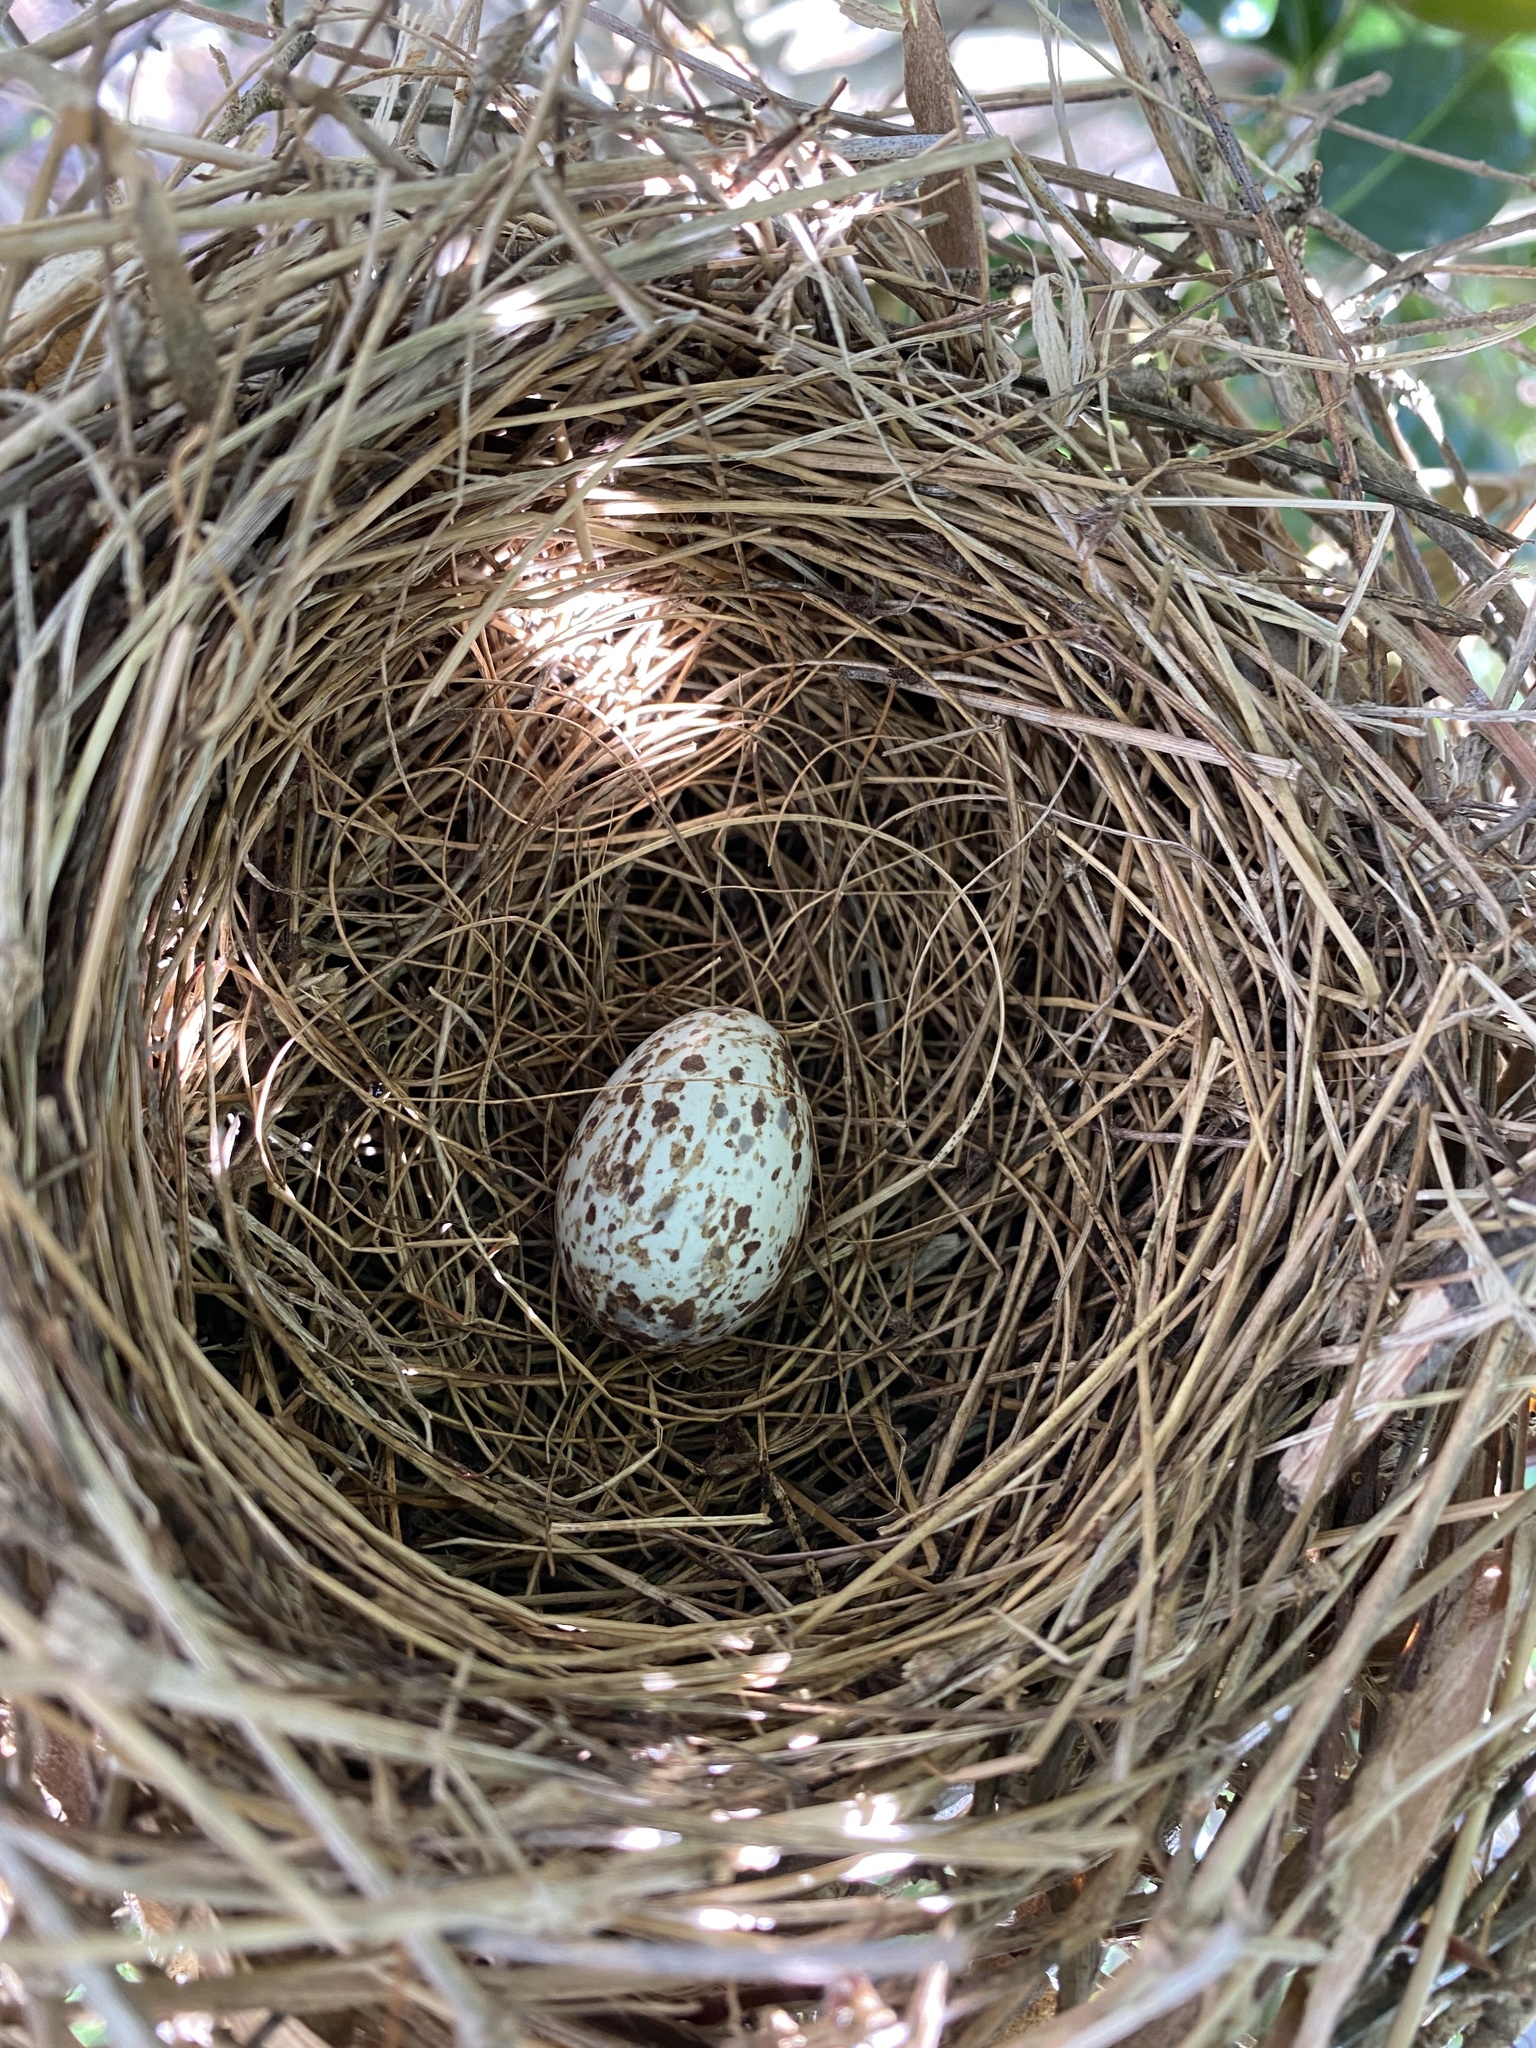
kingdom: Animalia
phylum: Chordata
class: Aves
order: Passeriformes
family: Cardinalidae
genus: Cardinalis
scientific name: Cardinalis cardinalis
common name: Northern cardinal
